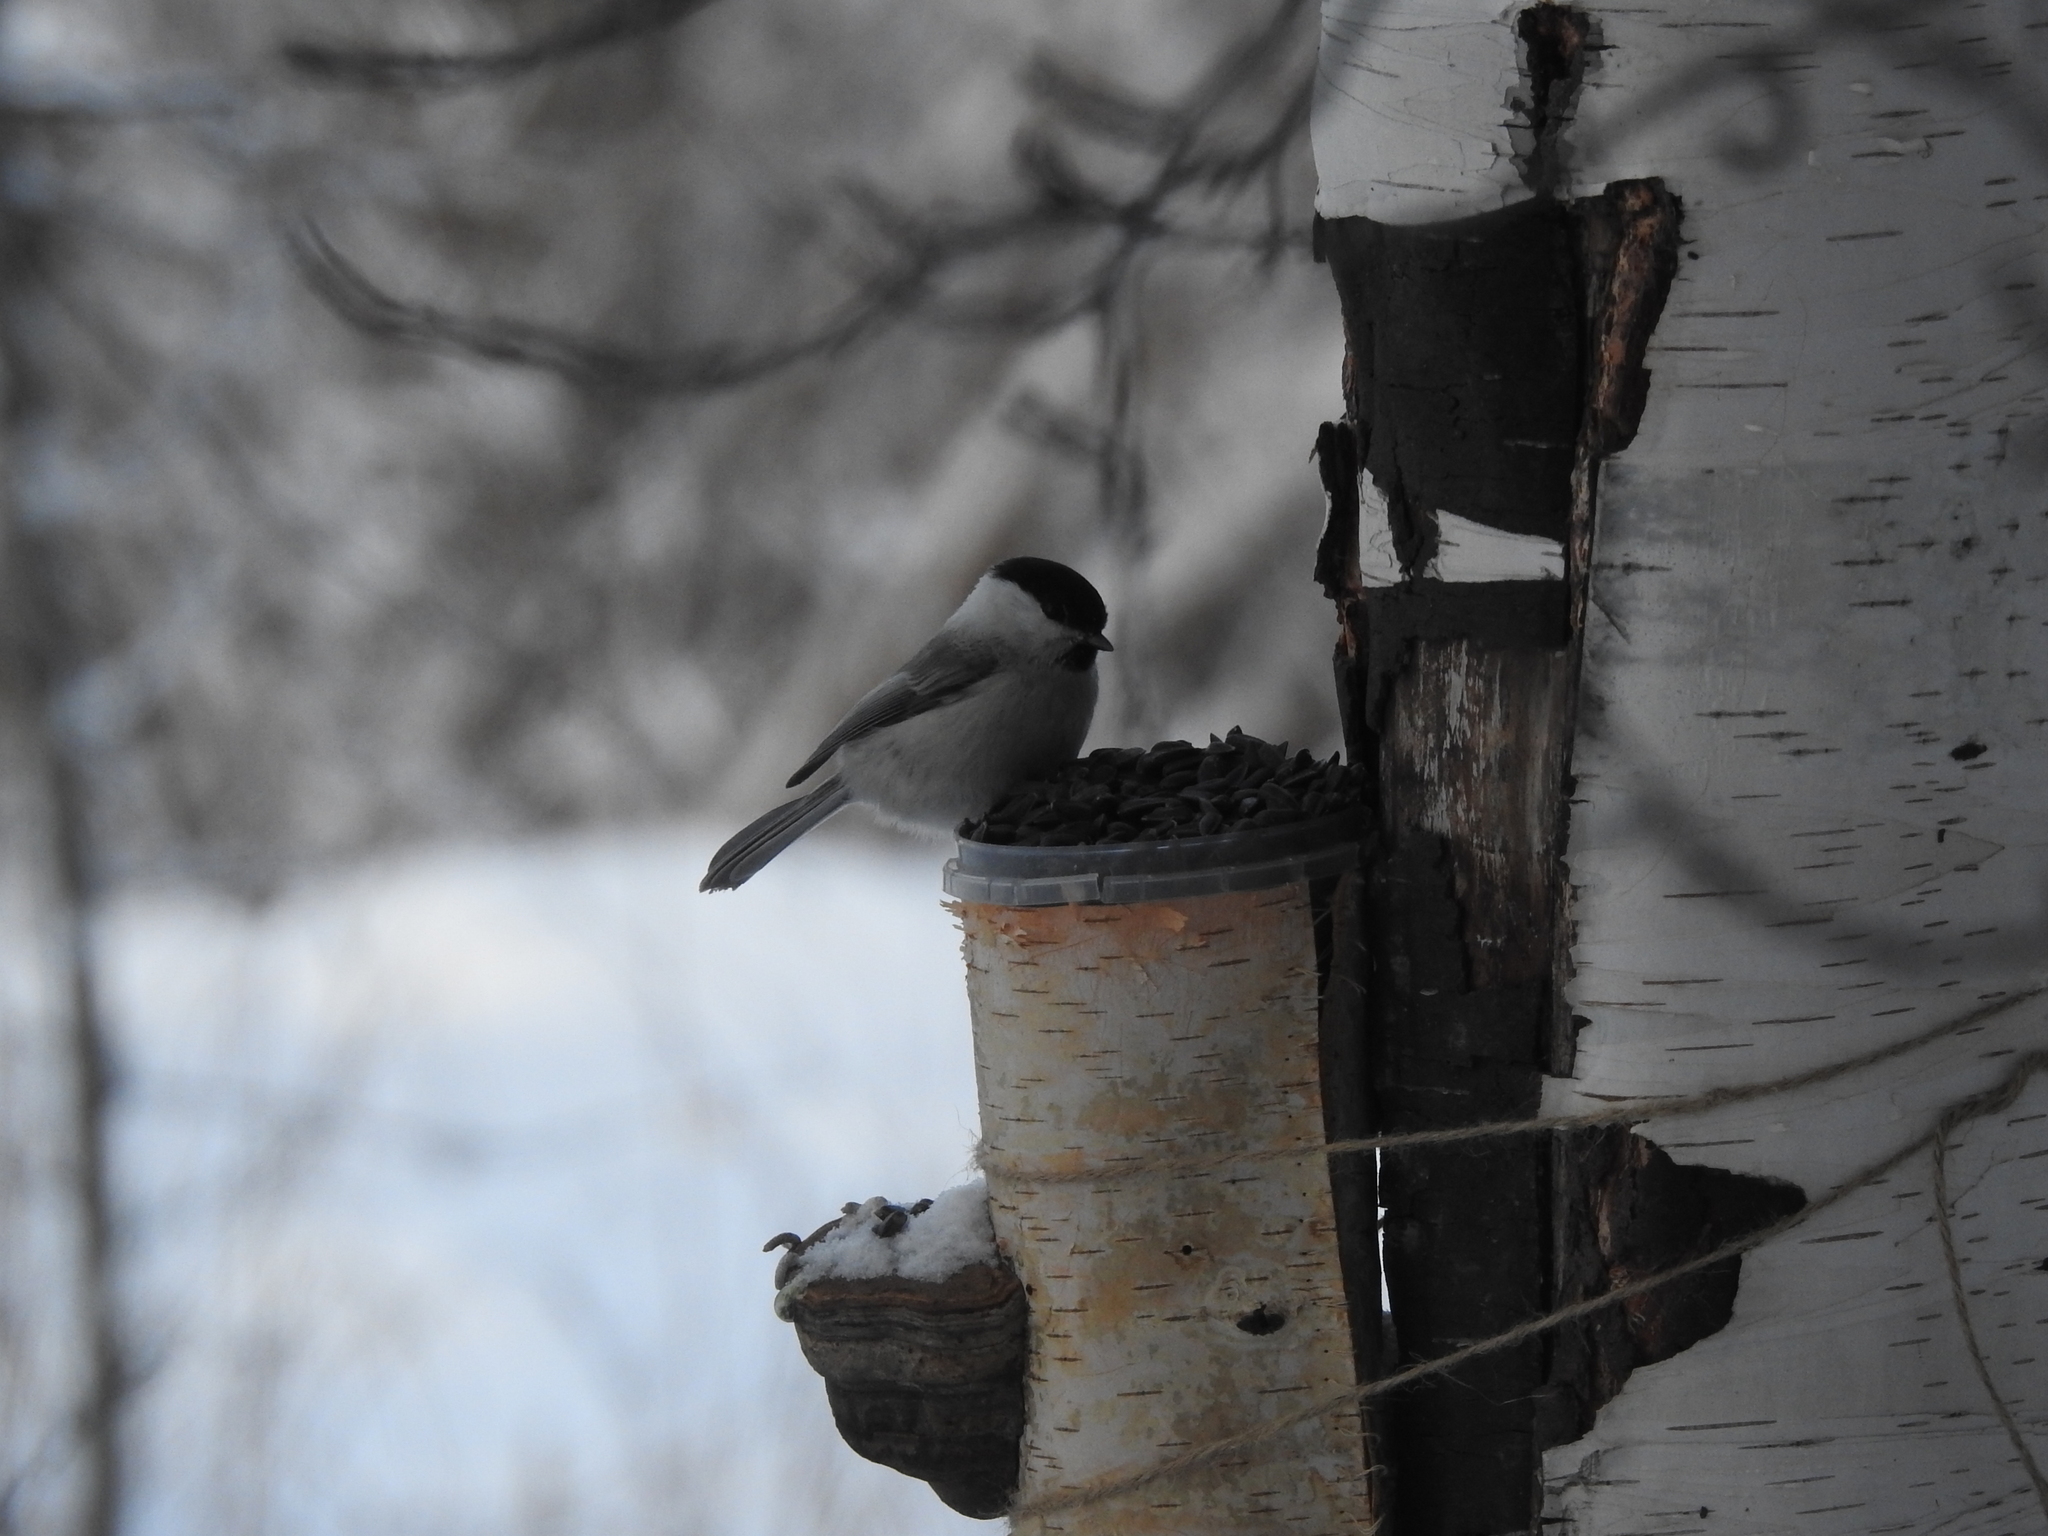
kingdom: Animalia
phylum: Chordata
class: Aves
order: Passeriformes
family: Paridae
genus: Poecile
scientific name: Poecile montanus
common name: Willow tit
